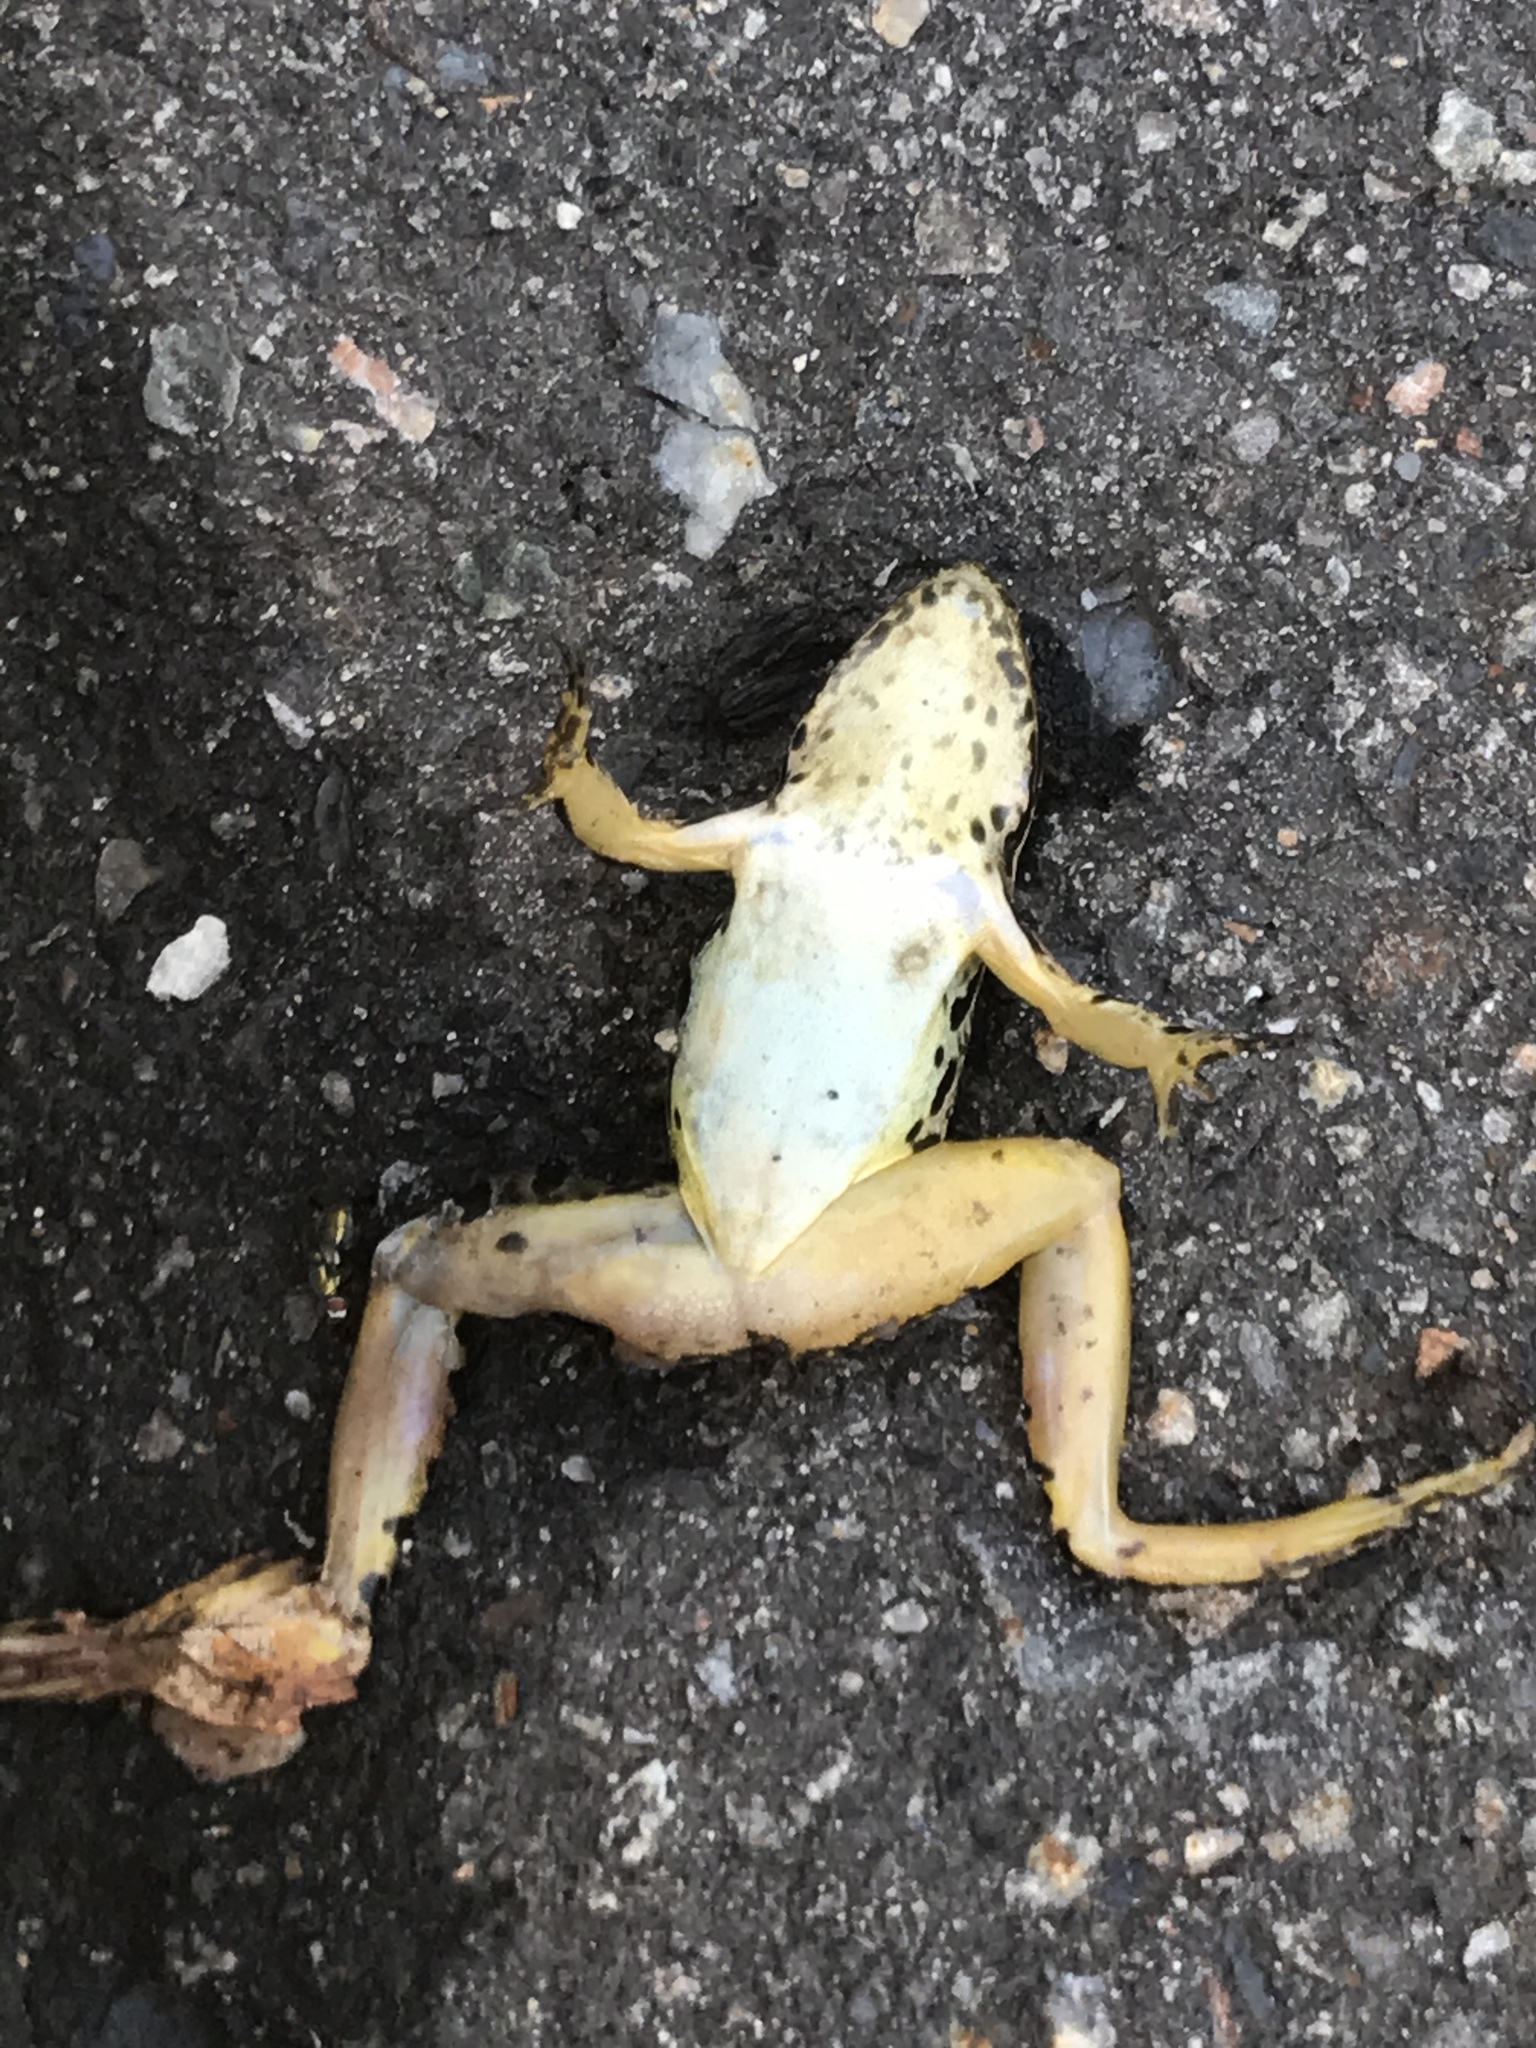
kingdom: Animalia
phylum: Chordata
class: Amphibia
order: Anura
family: Ranidae
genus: Lithobates
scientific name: Lithobates palustris
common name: Pickerel frog
